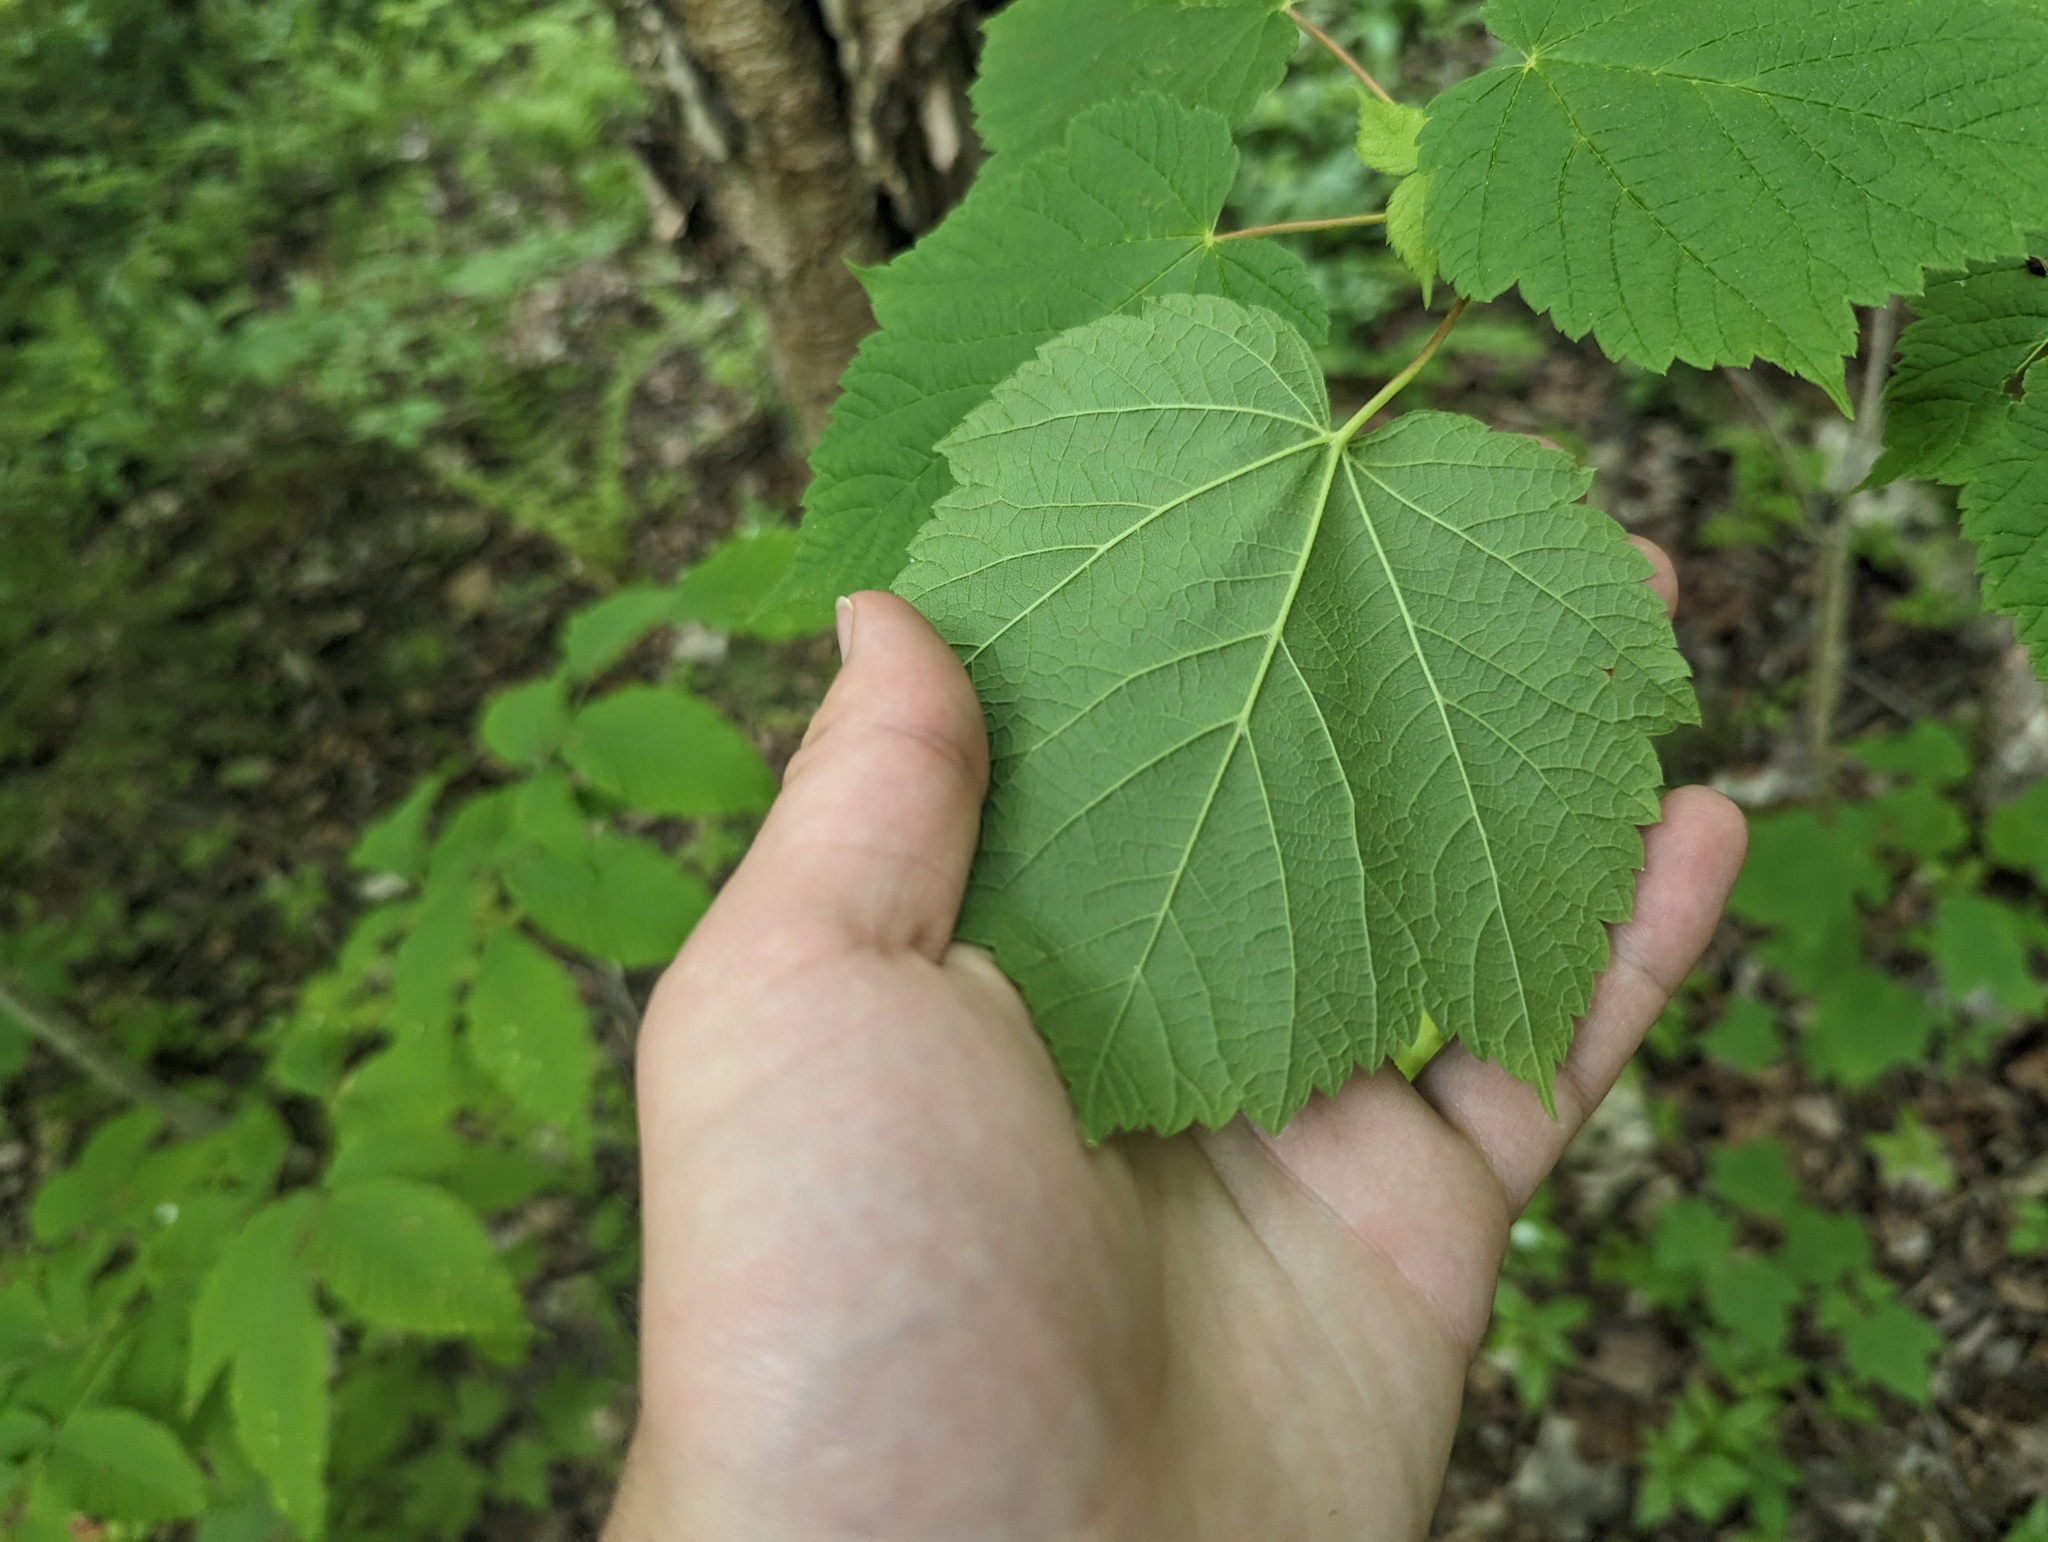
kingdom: Plantae
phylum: Tracheophyta
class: Magnoliopsida
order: Sapindales
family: Sapindaceae
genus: Acer
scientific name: Acer spicatum
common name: Mountain maple
